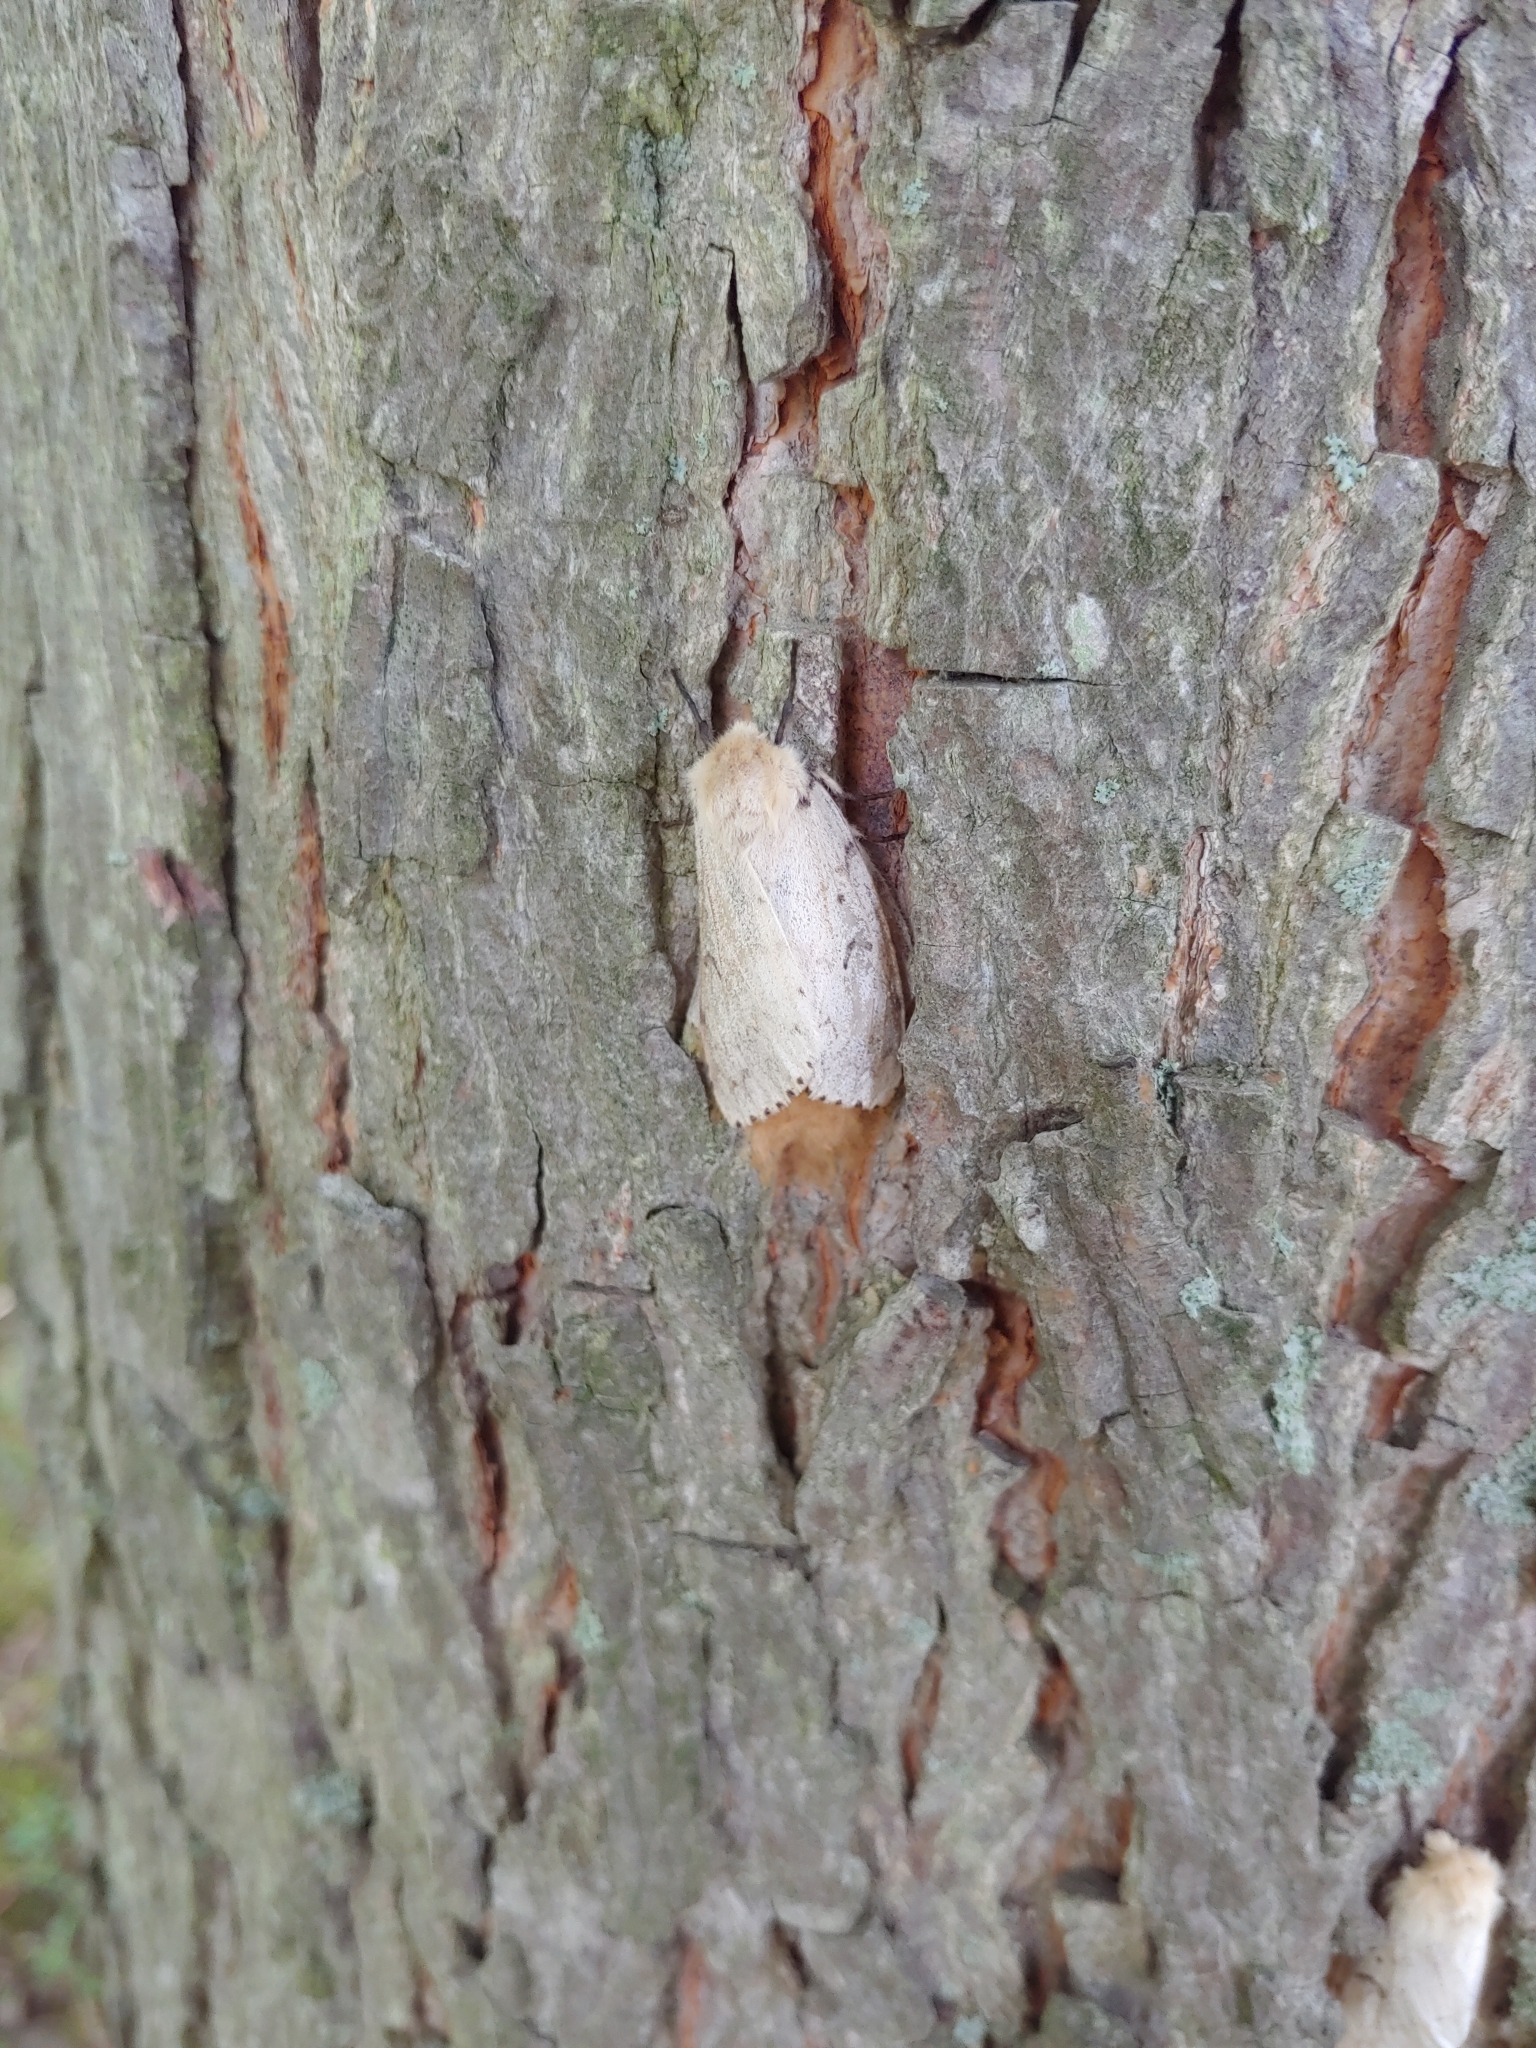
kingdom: Animalia
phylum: Arthropoda
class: Insecta
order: Lepidoptera
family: Erebidae
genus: Lymantria
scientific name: Lymantria dispar
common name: Gypsy moth
